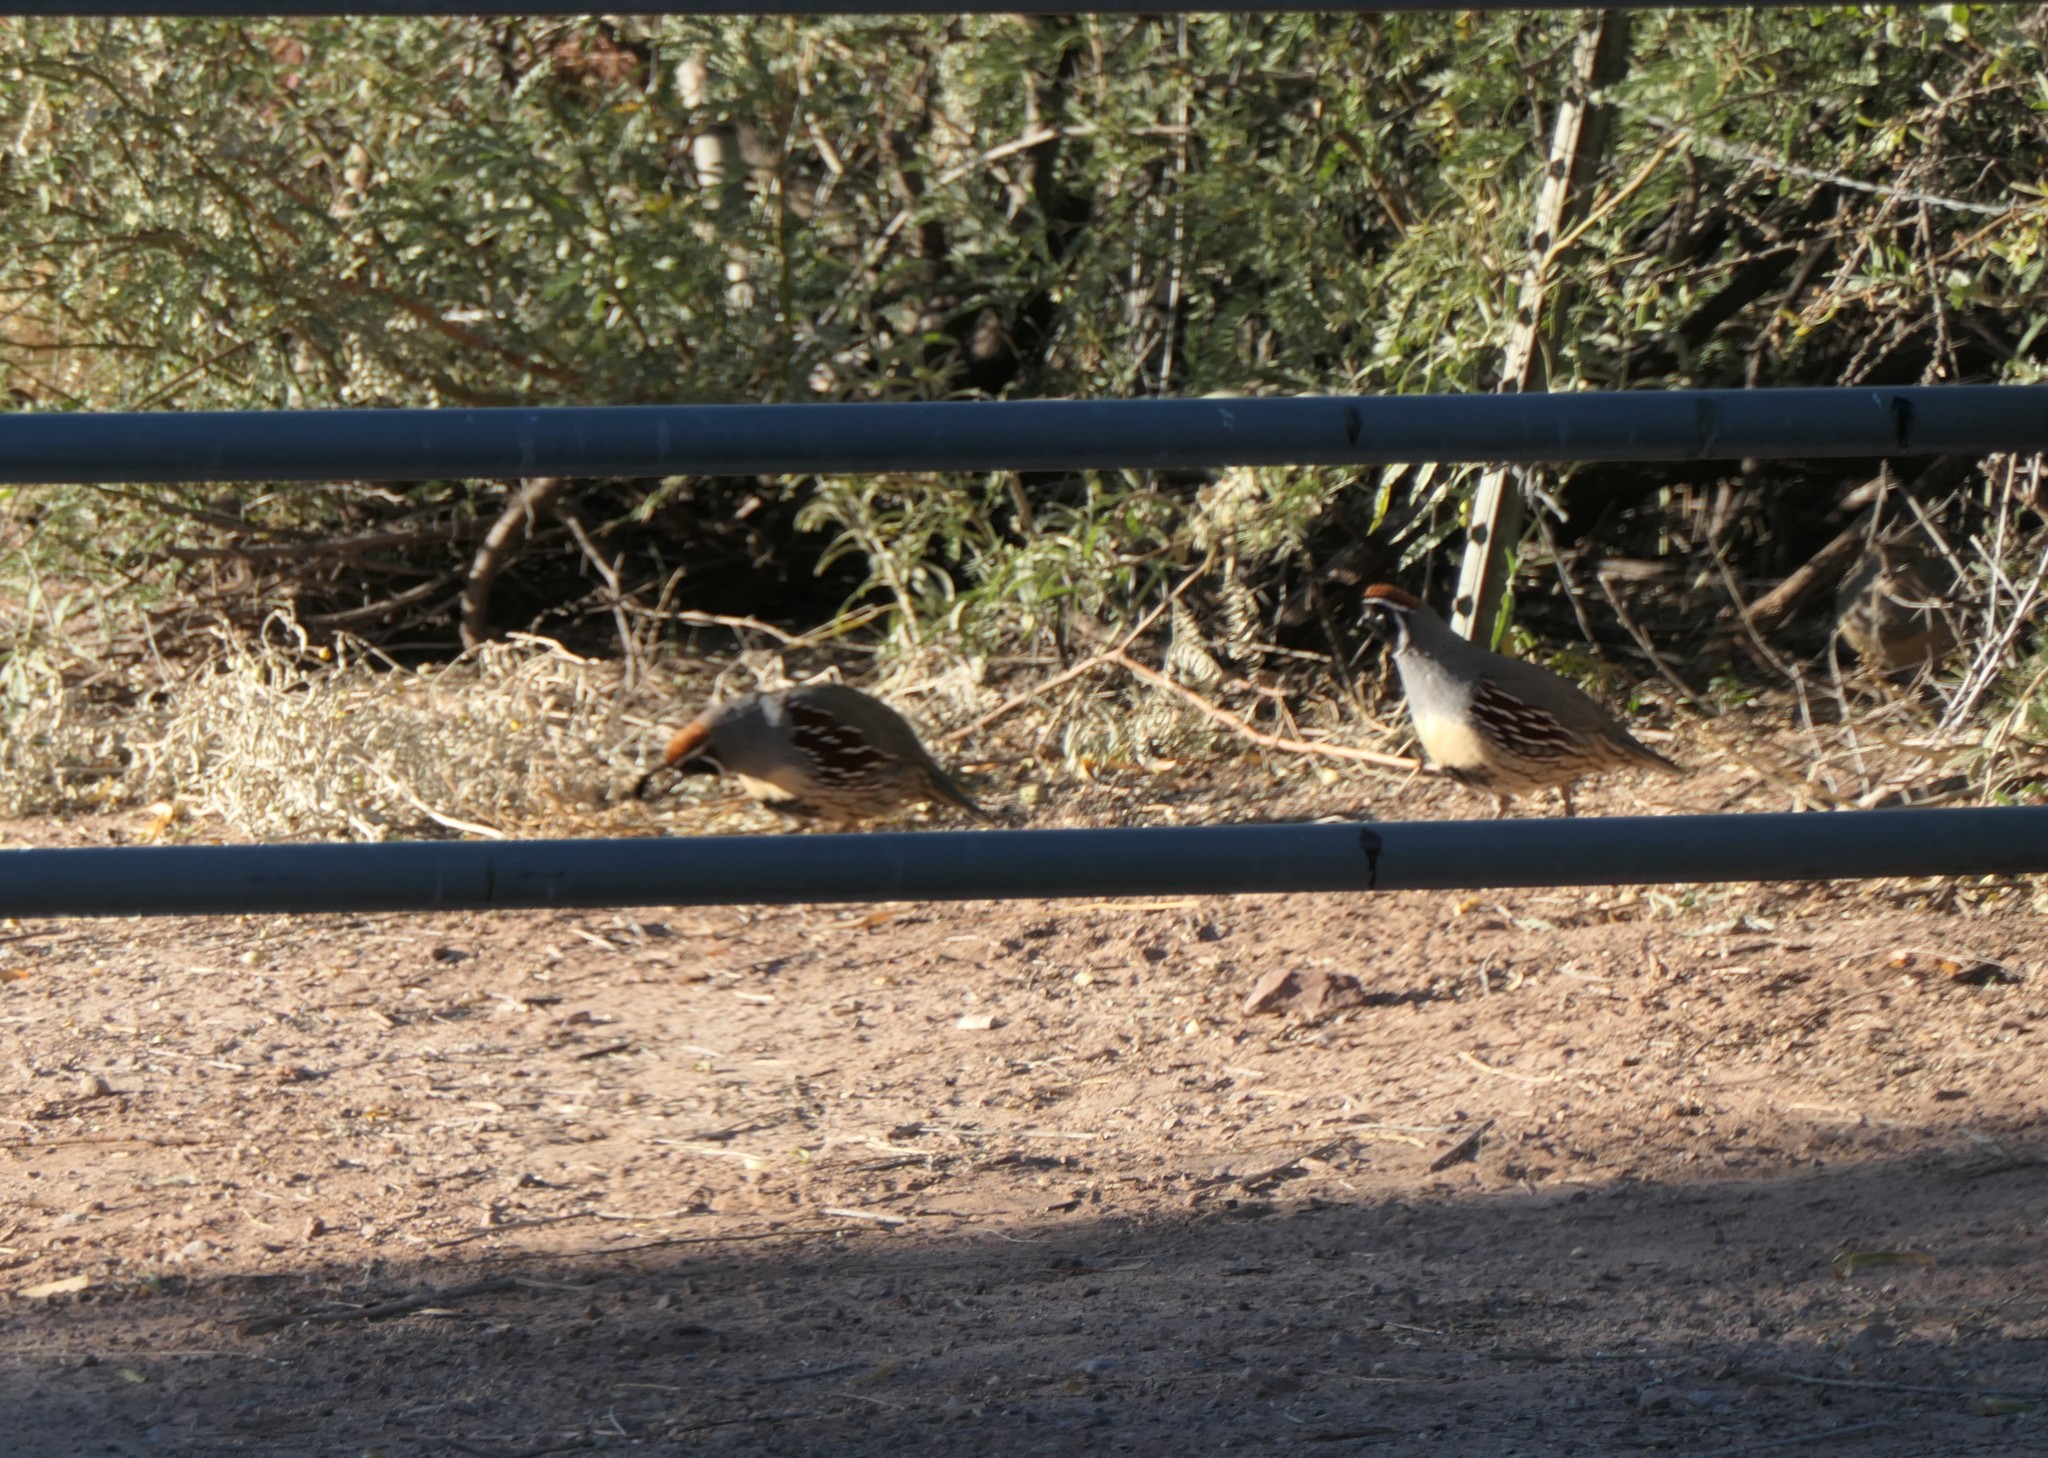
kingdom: Animalia
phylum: Chordata
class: Aves
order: Galliformes
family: Odontophoridae
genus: Callipepla
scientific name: Callipepla gambelii
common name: Gambel's quail
